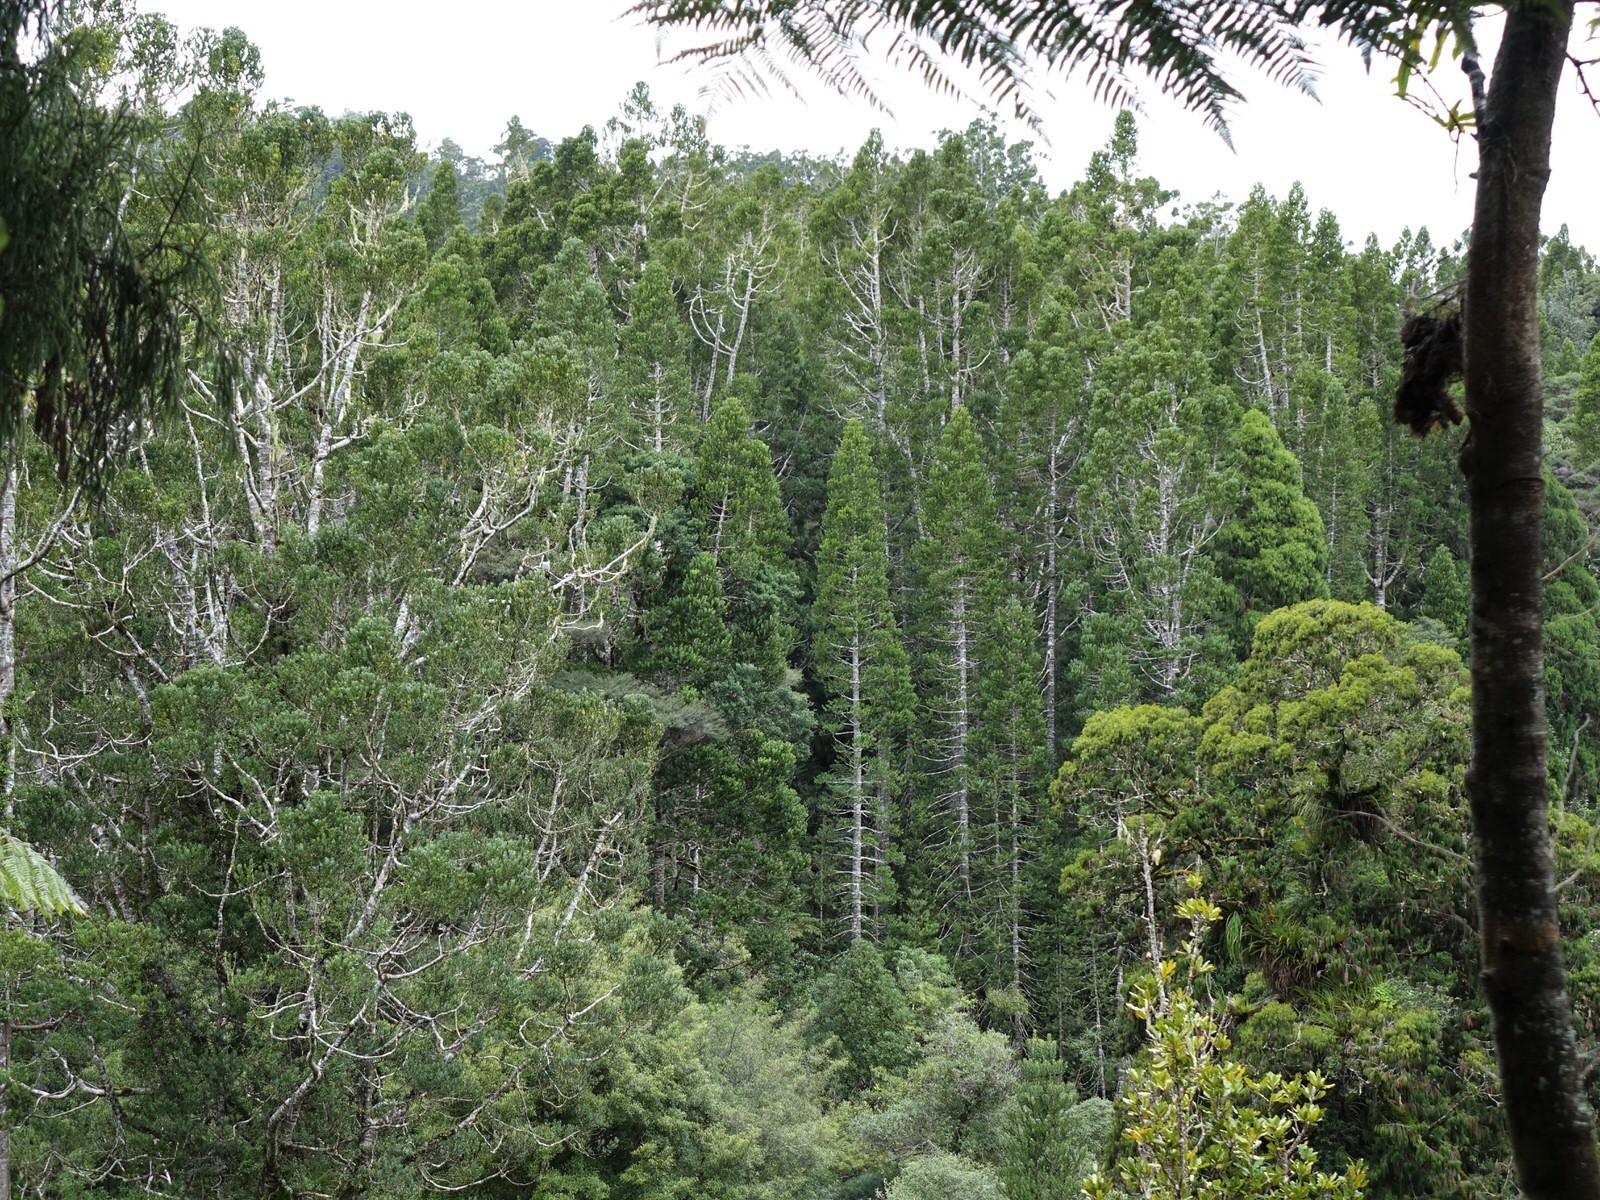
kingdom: Animalia
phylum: Chordata
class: Aves
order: Columbiformes
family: Columbidae
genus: Hemiphaga
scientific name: Hemiphaga novaeseelandiae
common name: New zealand pigeon
